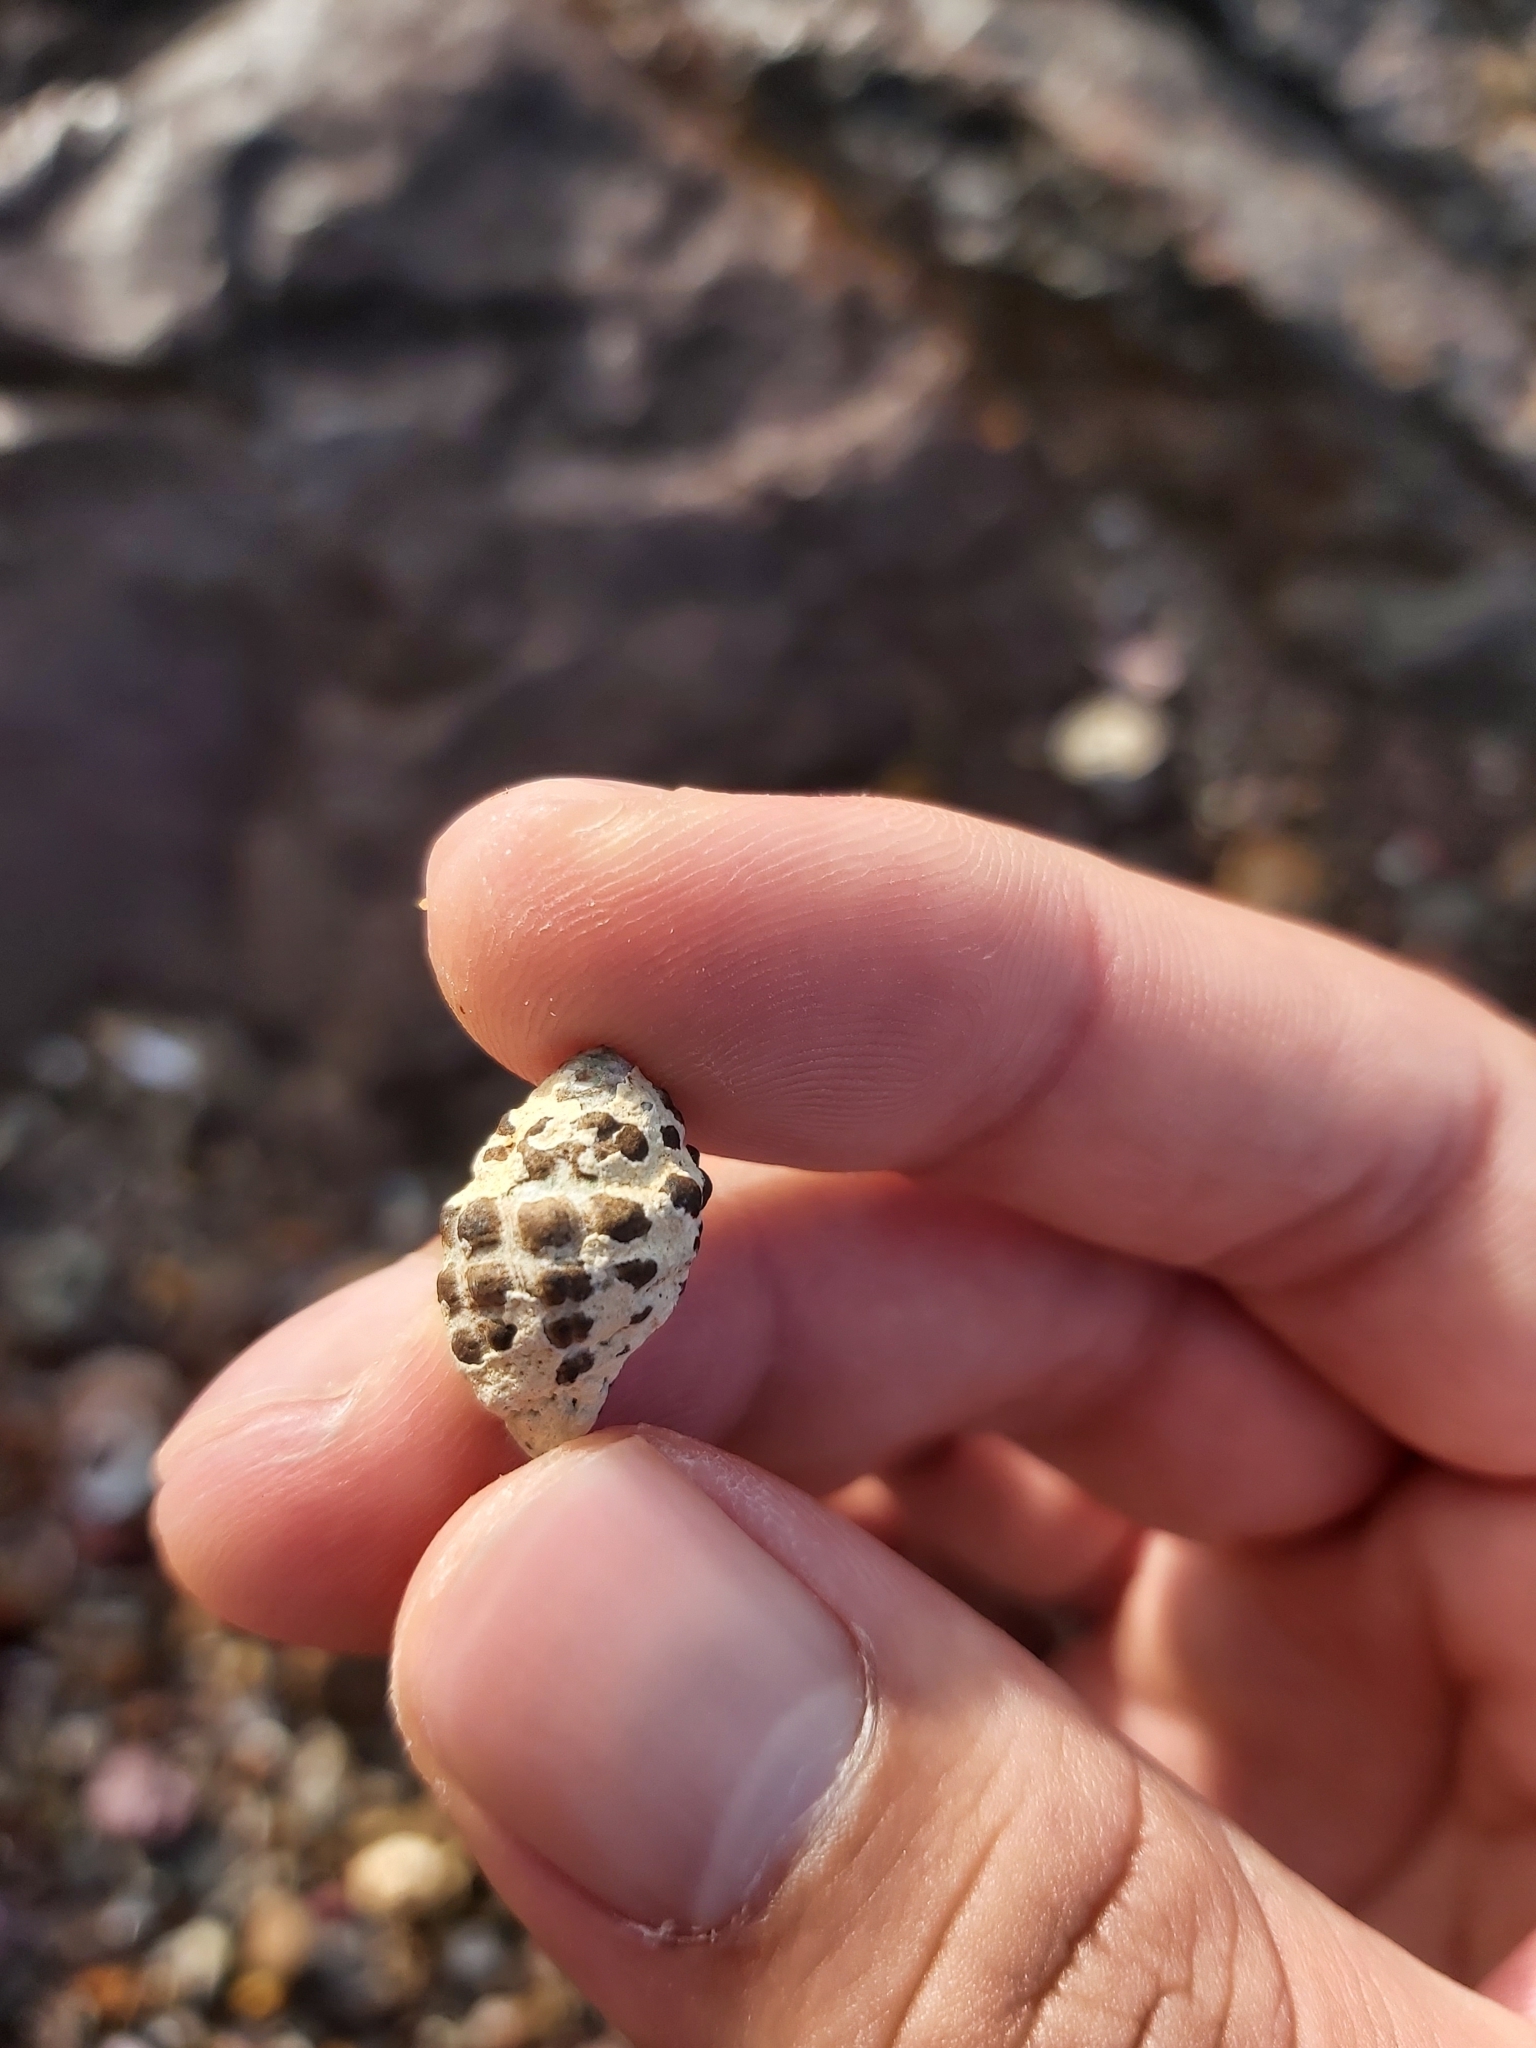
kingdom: Animalia
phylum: Mollusca
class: Gastropoda
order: Neogastropoda
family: Muricidae
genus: Tenguella
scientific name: Tenguella marginalba
